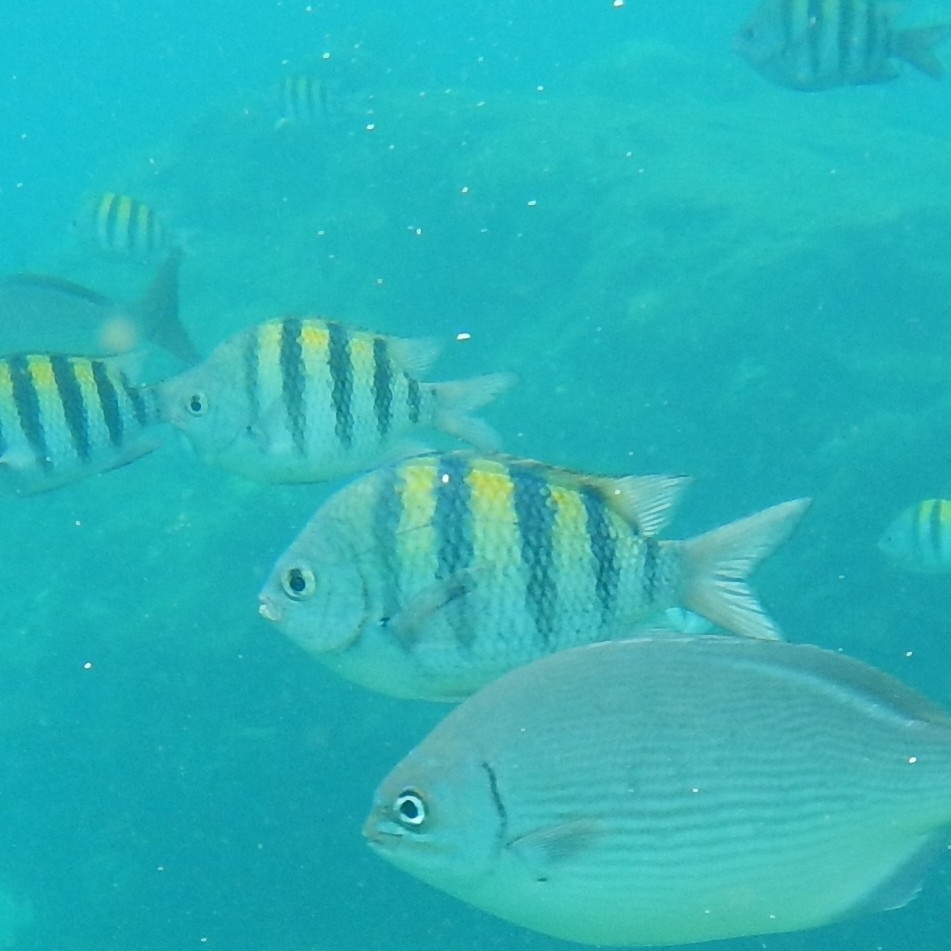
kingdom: Animalia
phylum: Chordata
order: Perciformes
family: Pomacentridae
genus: Abudefduf
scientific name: Abudefduf saxatilis
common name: Sergeant major
